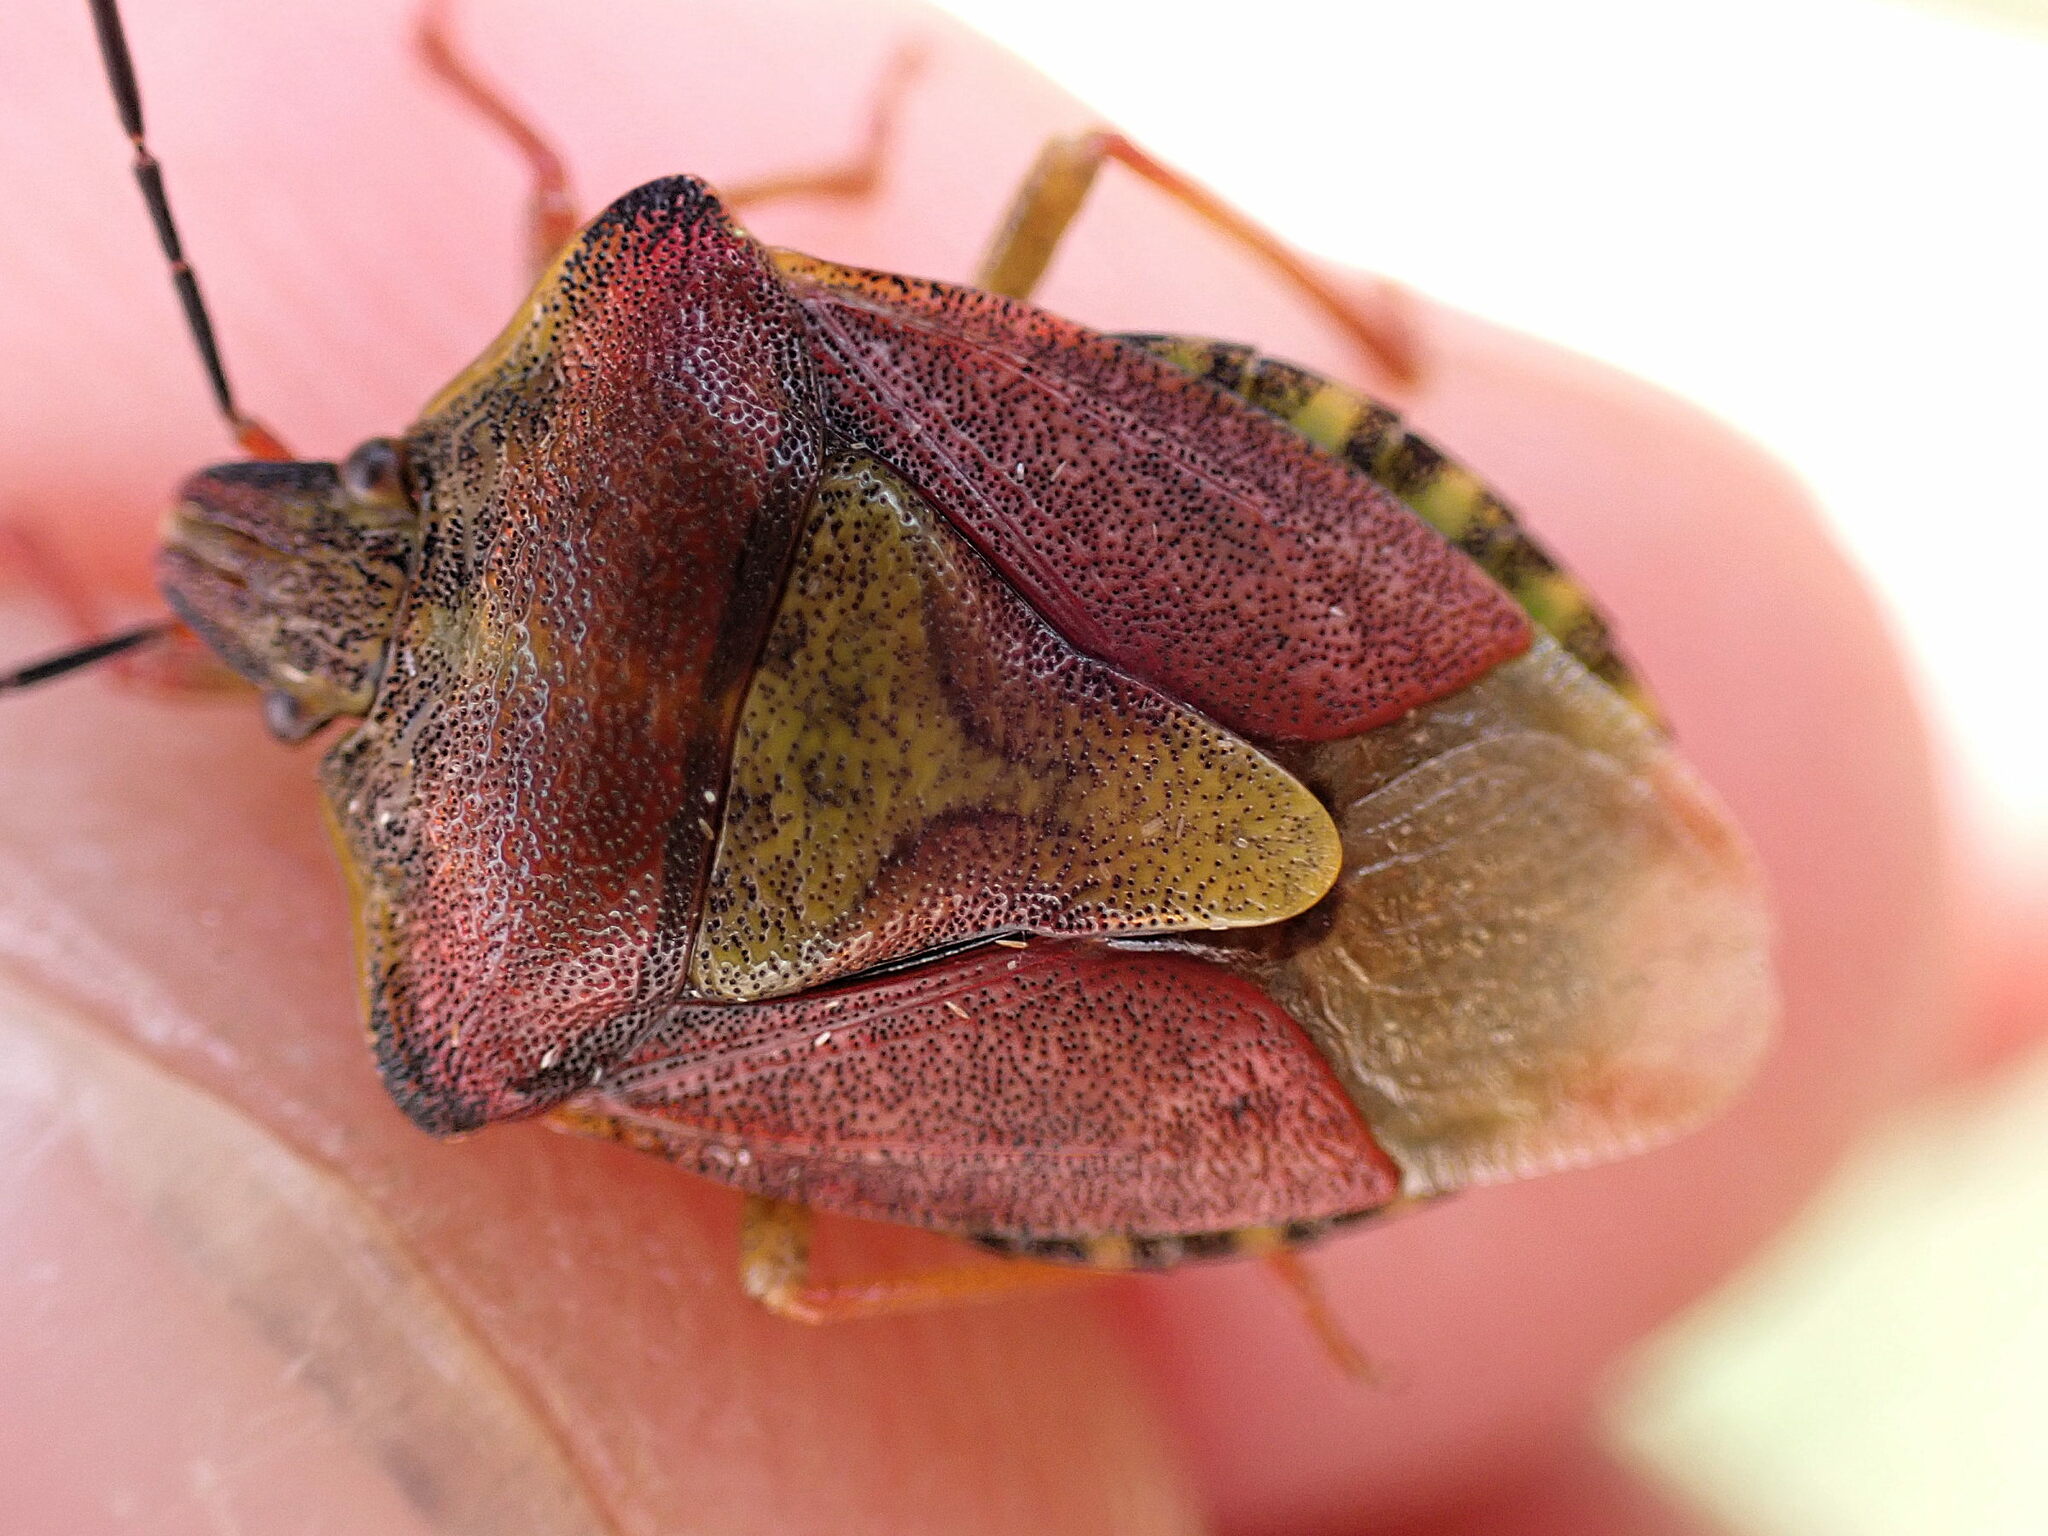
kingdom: Animalia
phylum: Arthropoda
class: Insecta
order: Hemiptera
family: Pentatomidae
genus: Carpocoris
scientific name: Carpocoris purpureipennis
